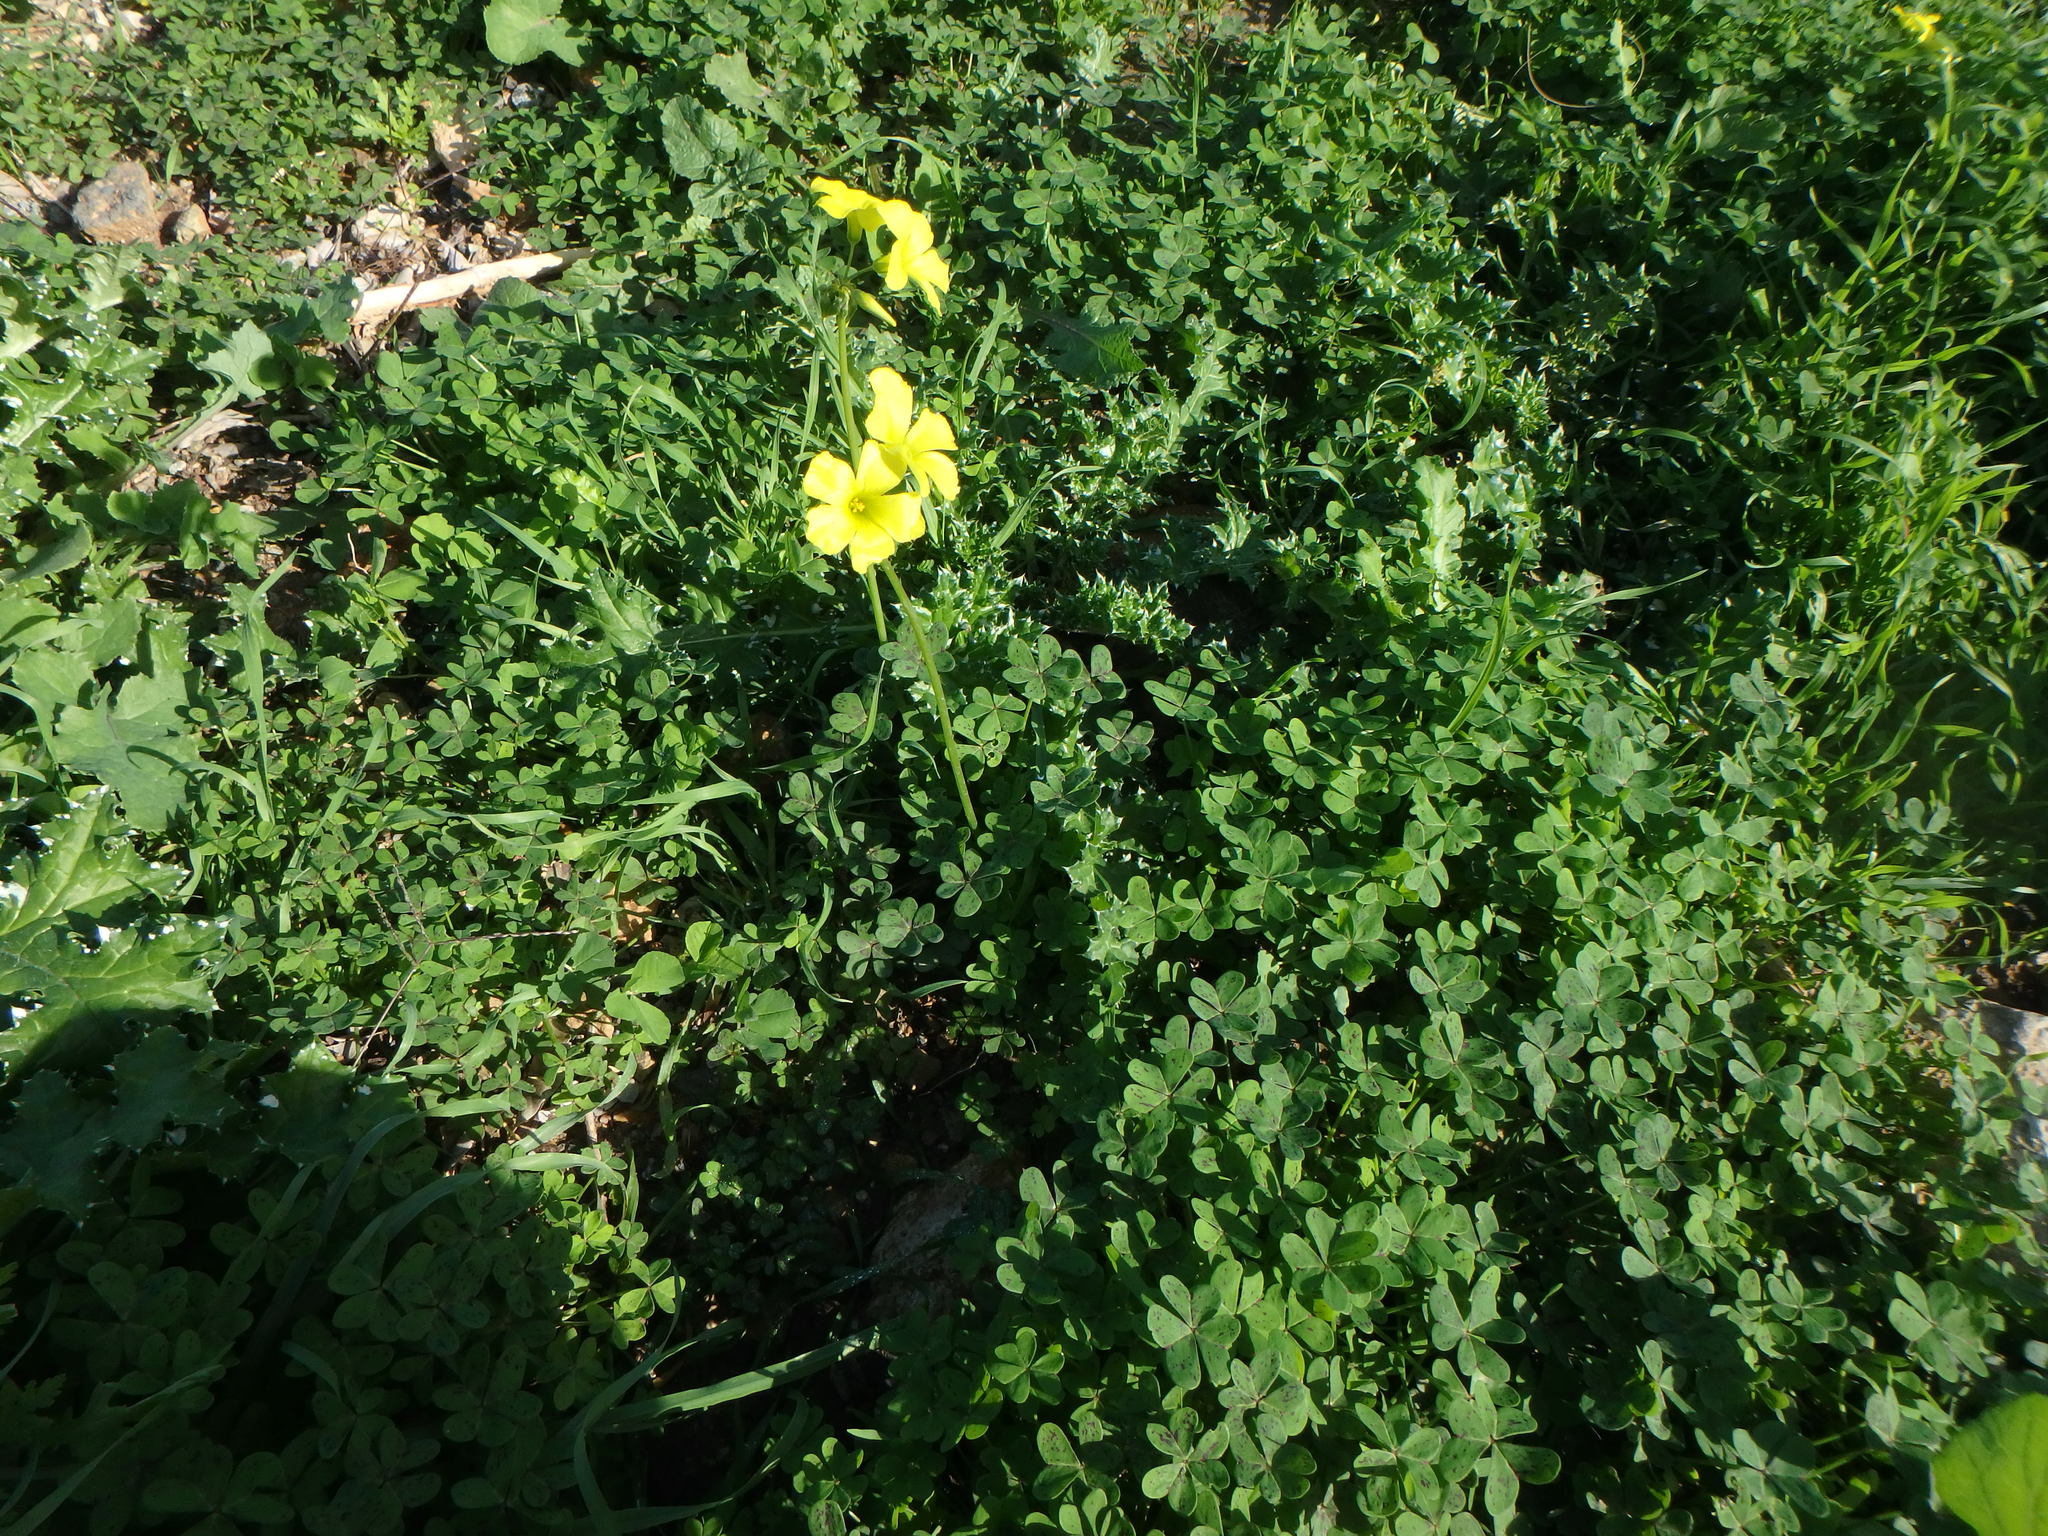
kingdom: Plantae
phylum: Tracheophyta
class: Magnoliopsida
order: Oxalidales
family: Oxalidaceae
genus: Oxalis
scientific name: Oxalis pes-caprae
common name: Bermuda-buttercup
